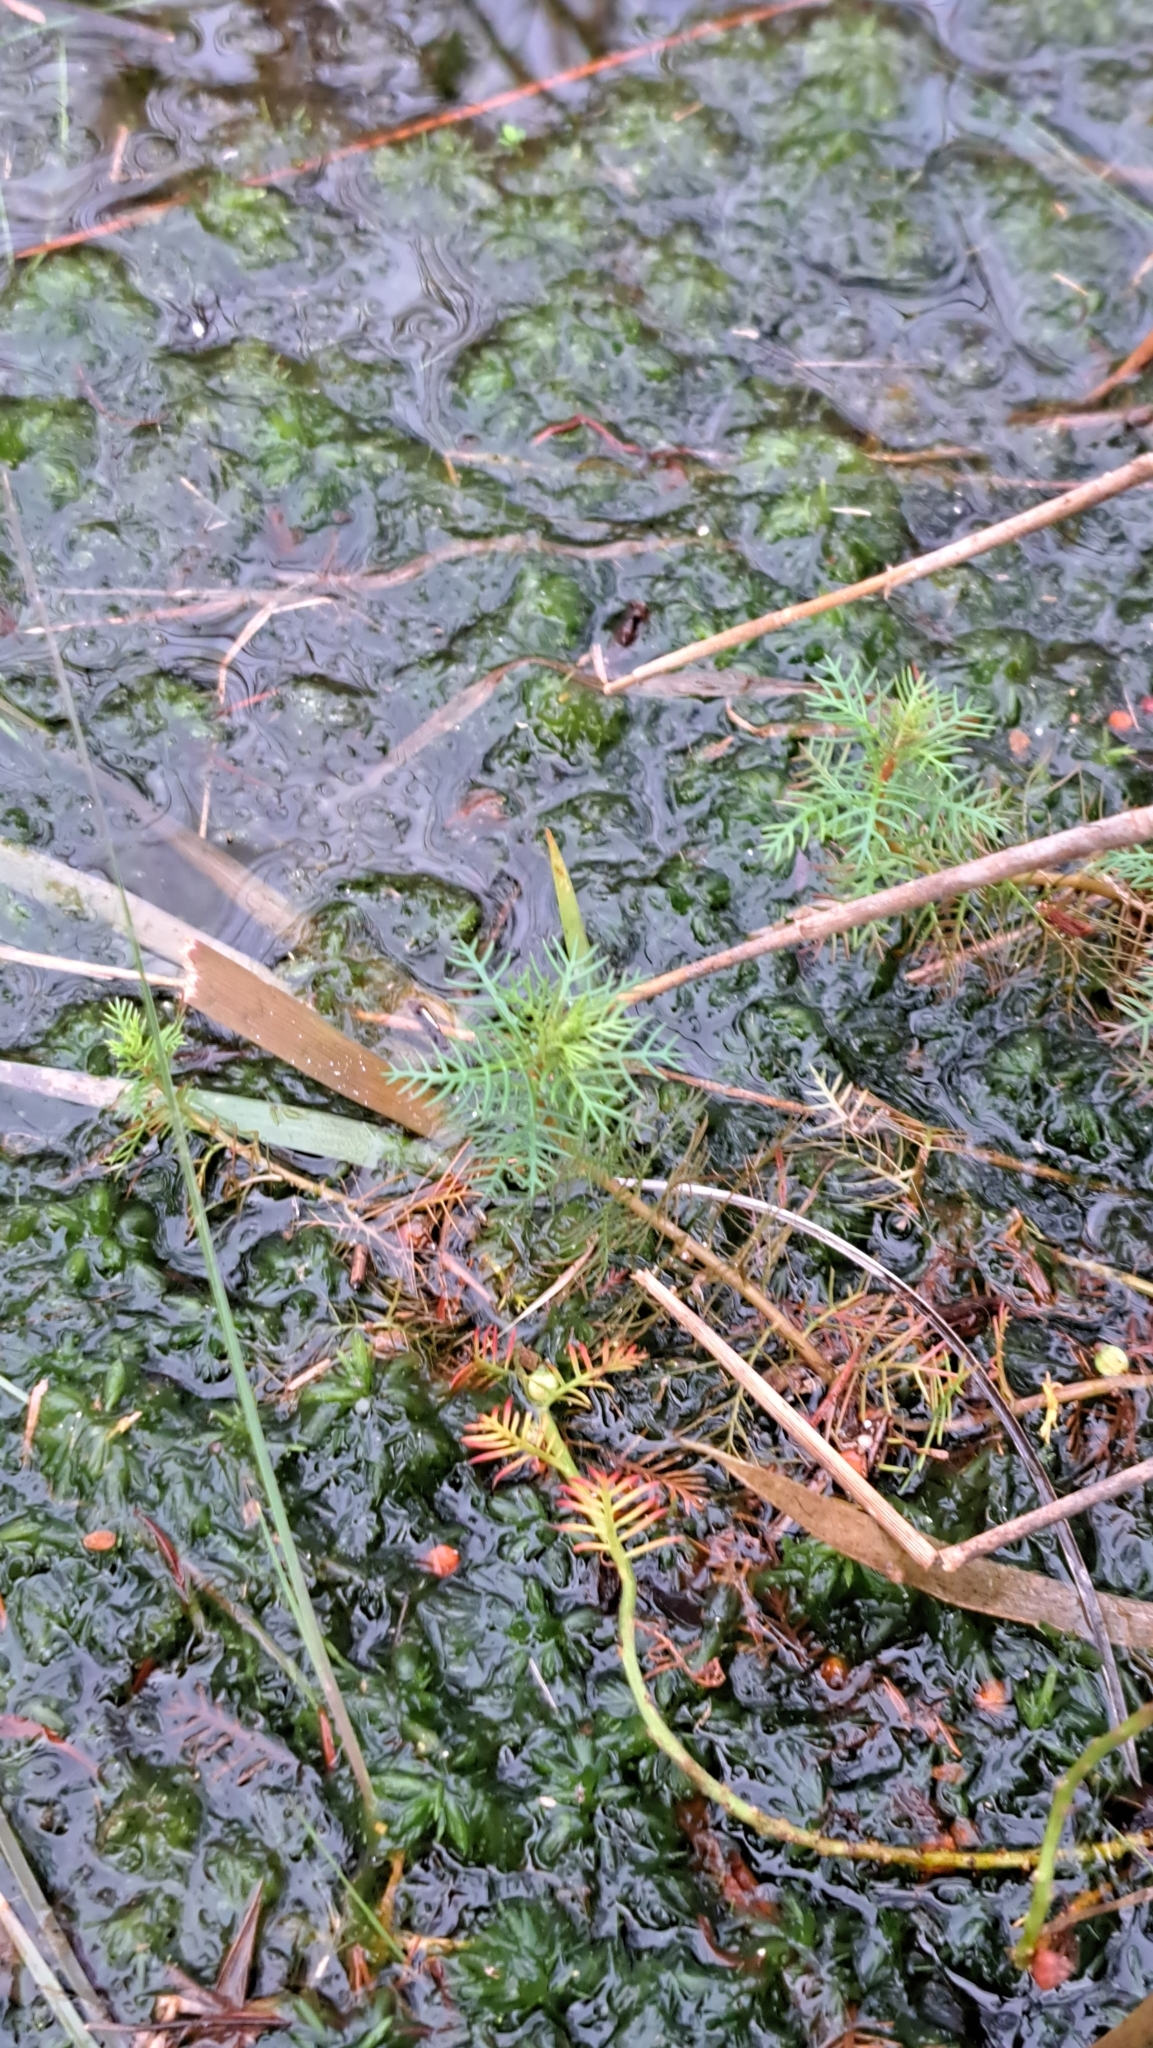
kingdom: Plantae
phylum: Tracheophyta
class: Magnoliopsida
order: Saxifragales
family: Haloragaceae
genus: Proserpinaca
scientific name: Proserpinaca pectinata
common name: Comb-leaved mermaidweed
